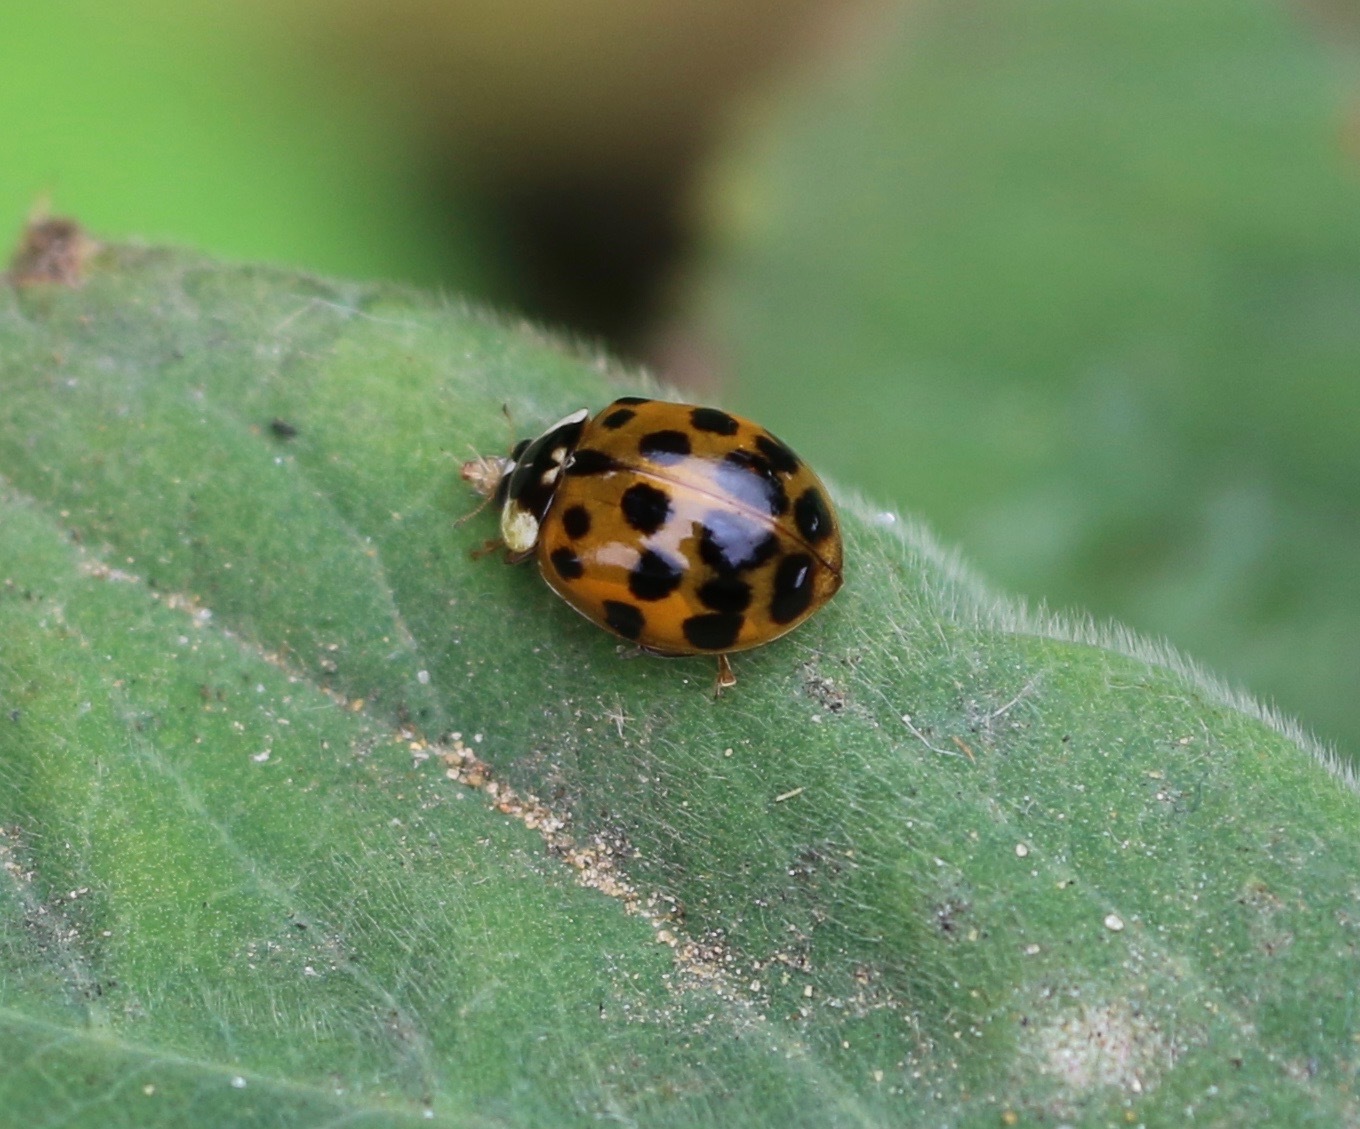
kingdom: Animalia
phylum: Arthropoda
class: Insecta
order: Coleoptera
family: Coccinellidae
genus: Harmonia
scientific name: Harmonia axyridis
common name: Harlequin ladybird
